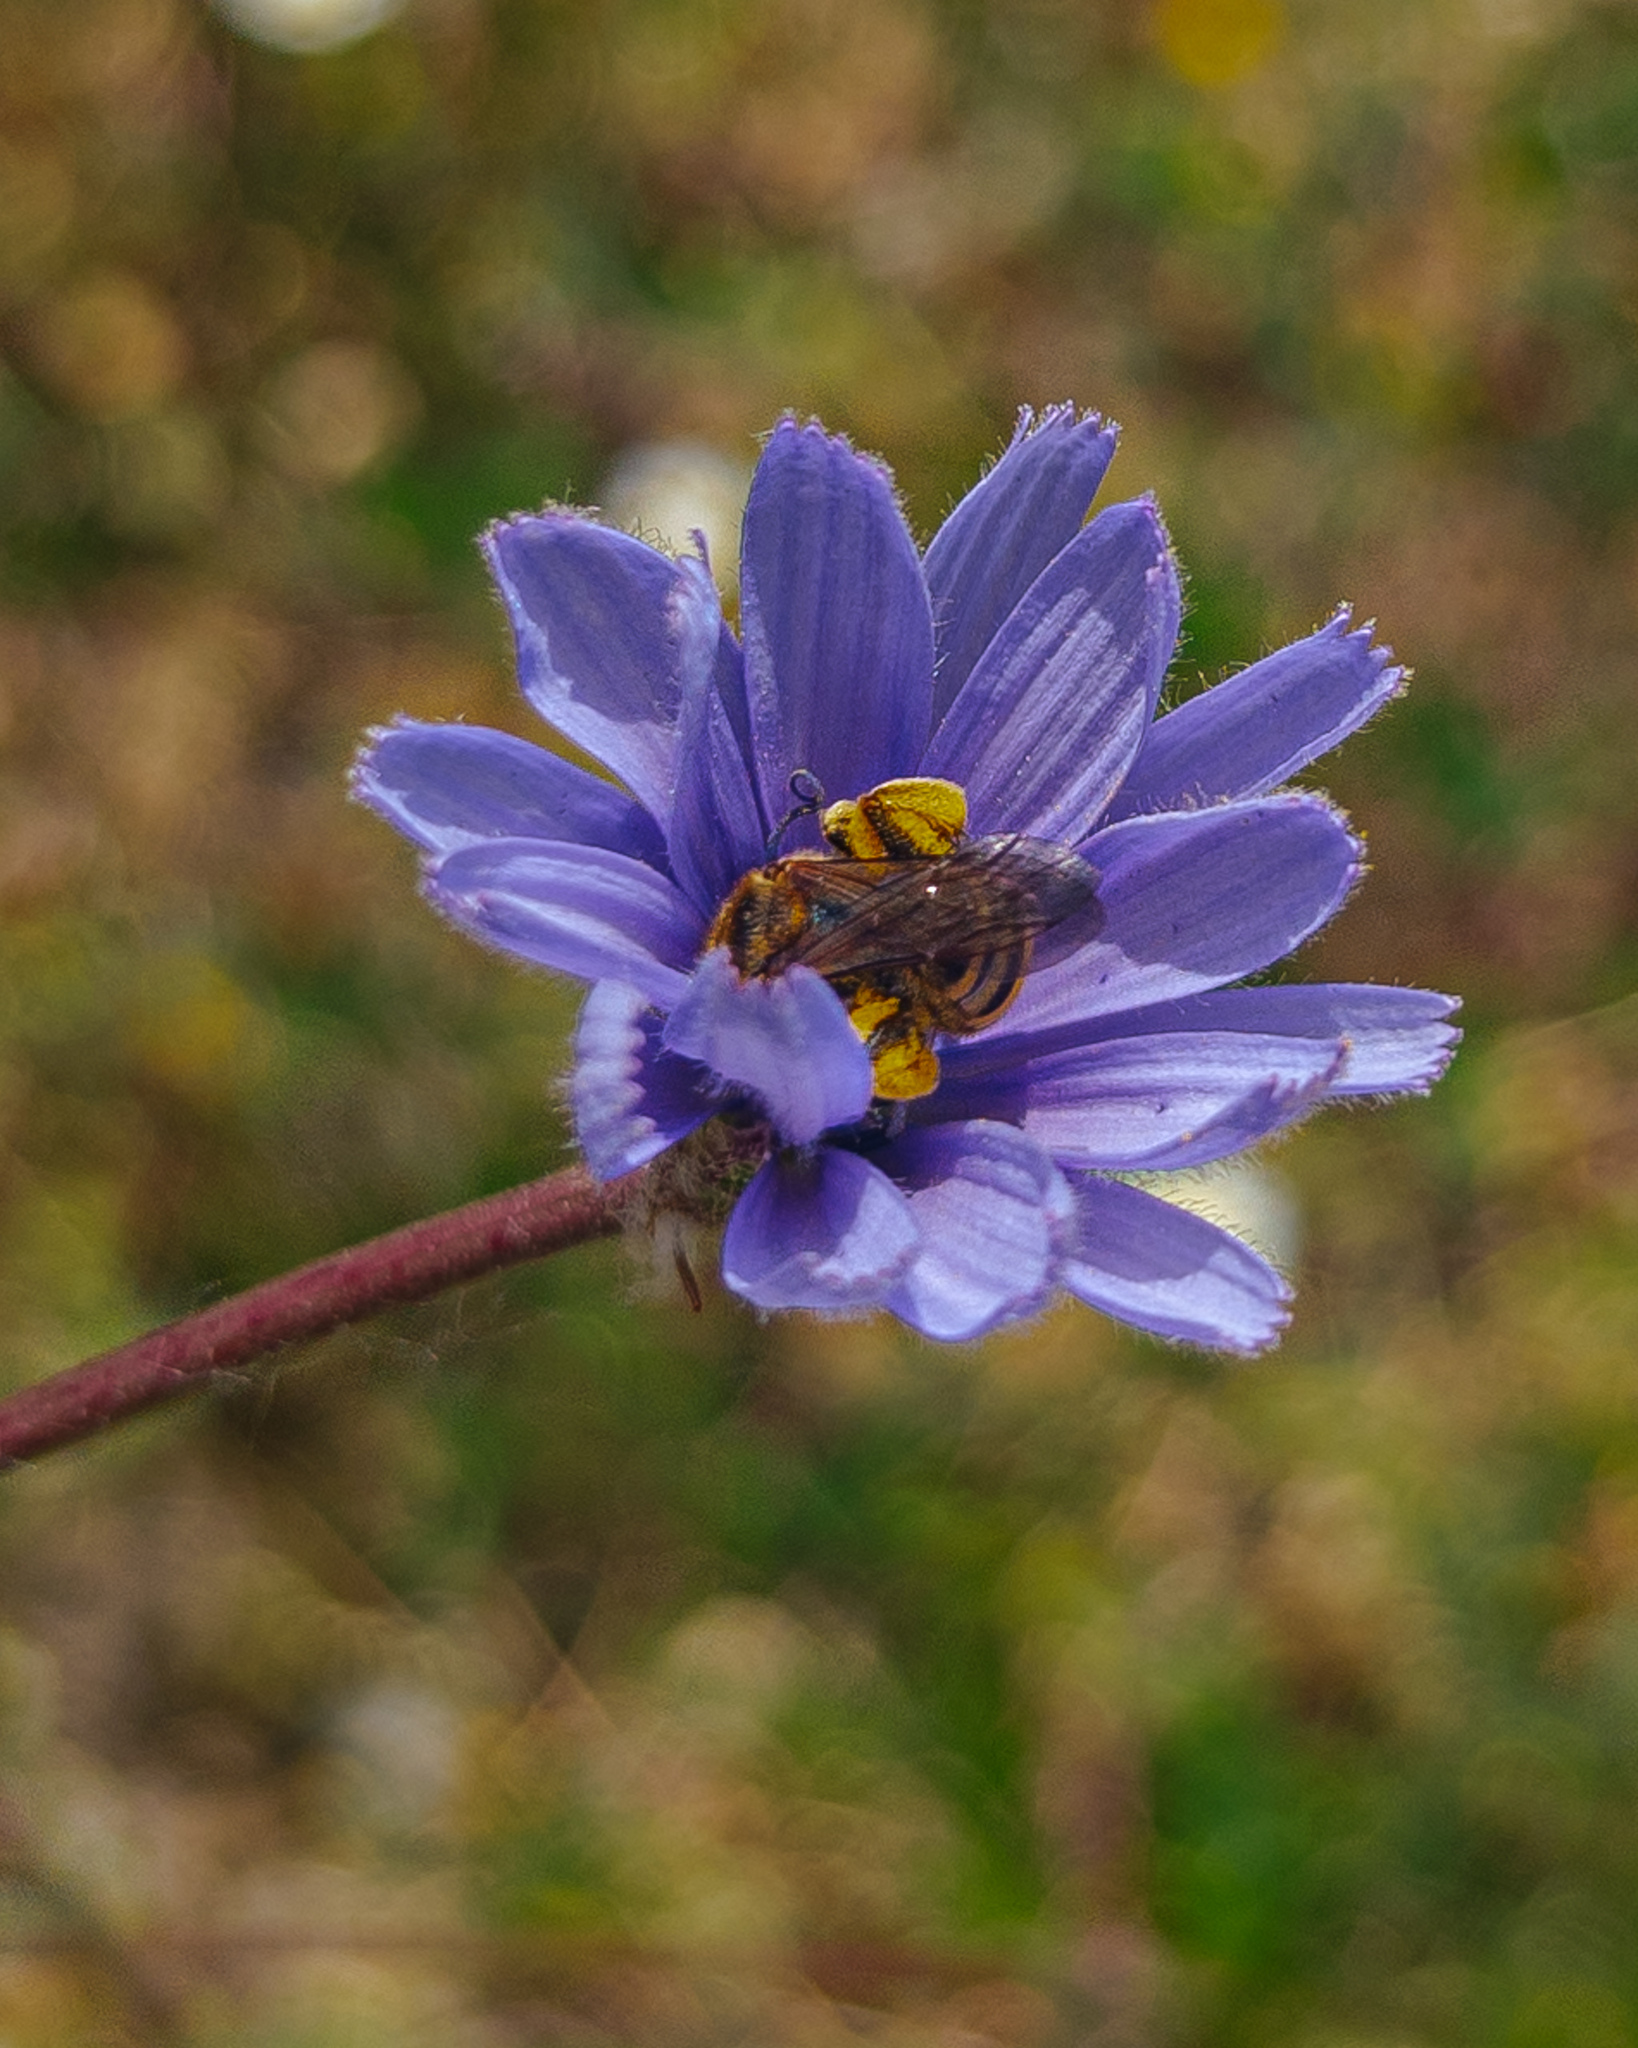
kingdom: Animalia
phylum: Arthropoda
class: Insecta
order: Hymenoptera
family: Halictidae
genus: Halictus
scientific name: Halictus scabiosae
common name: Great banded furrow bee
